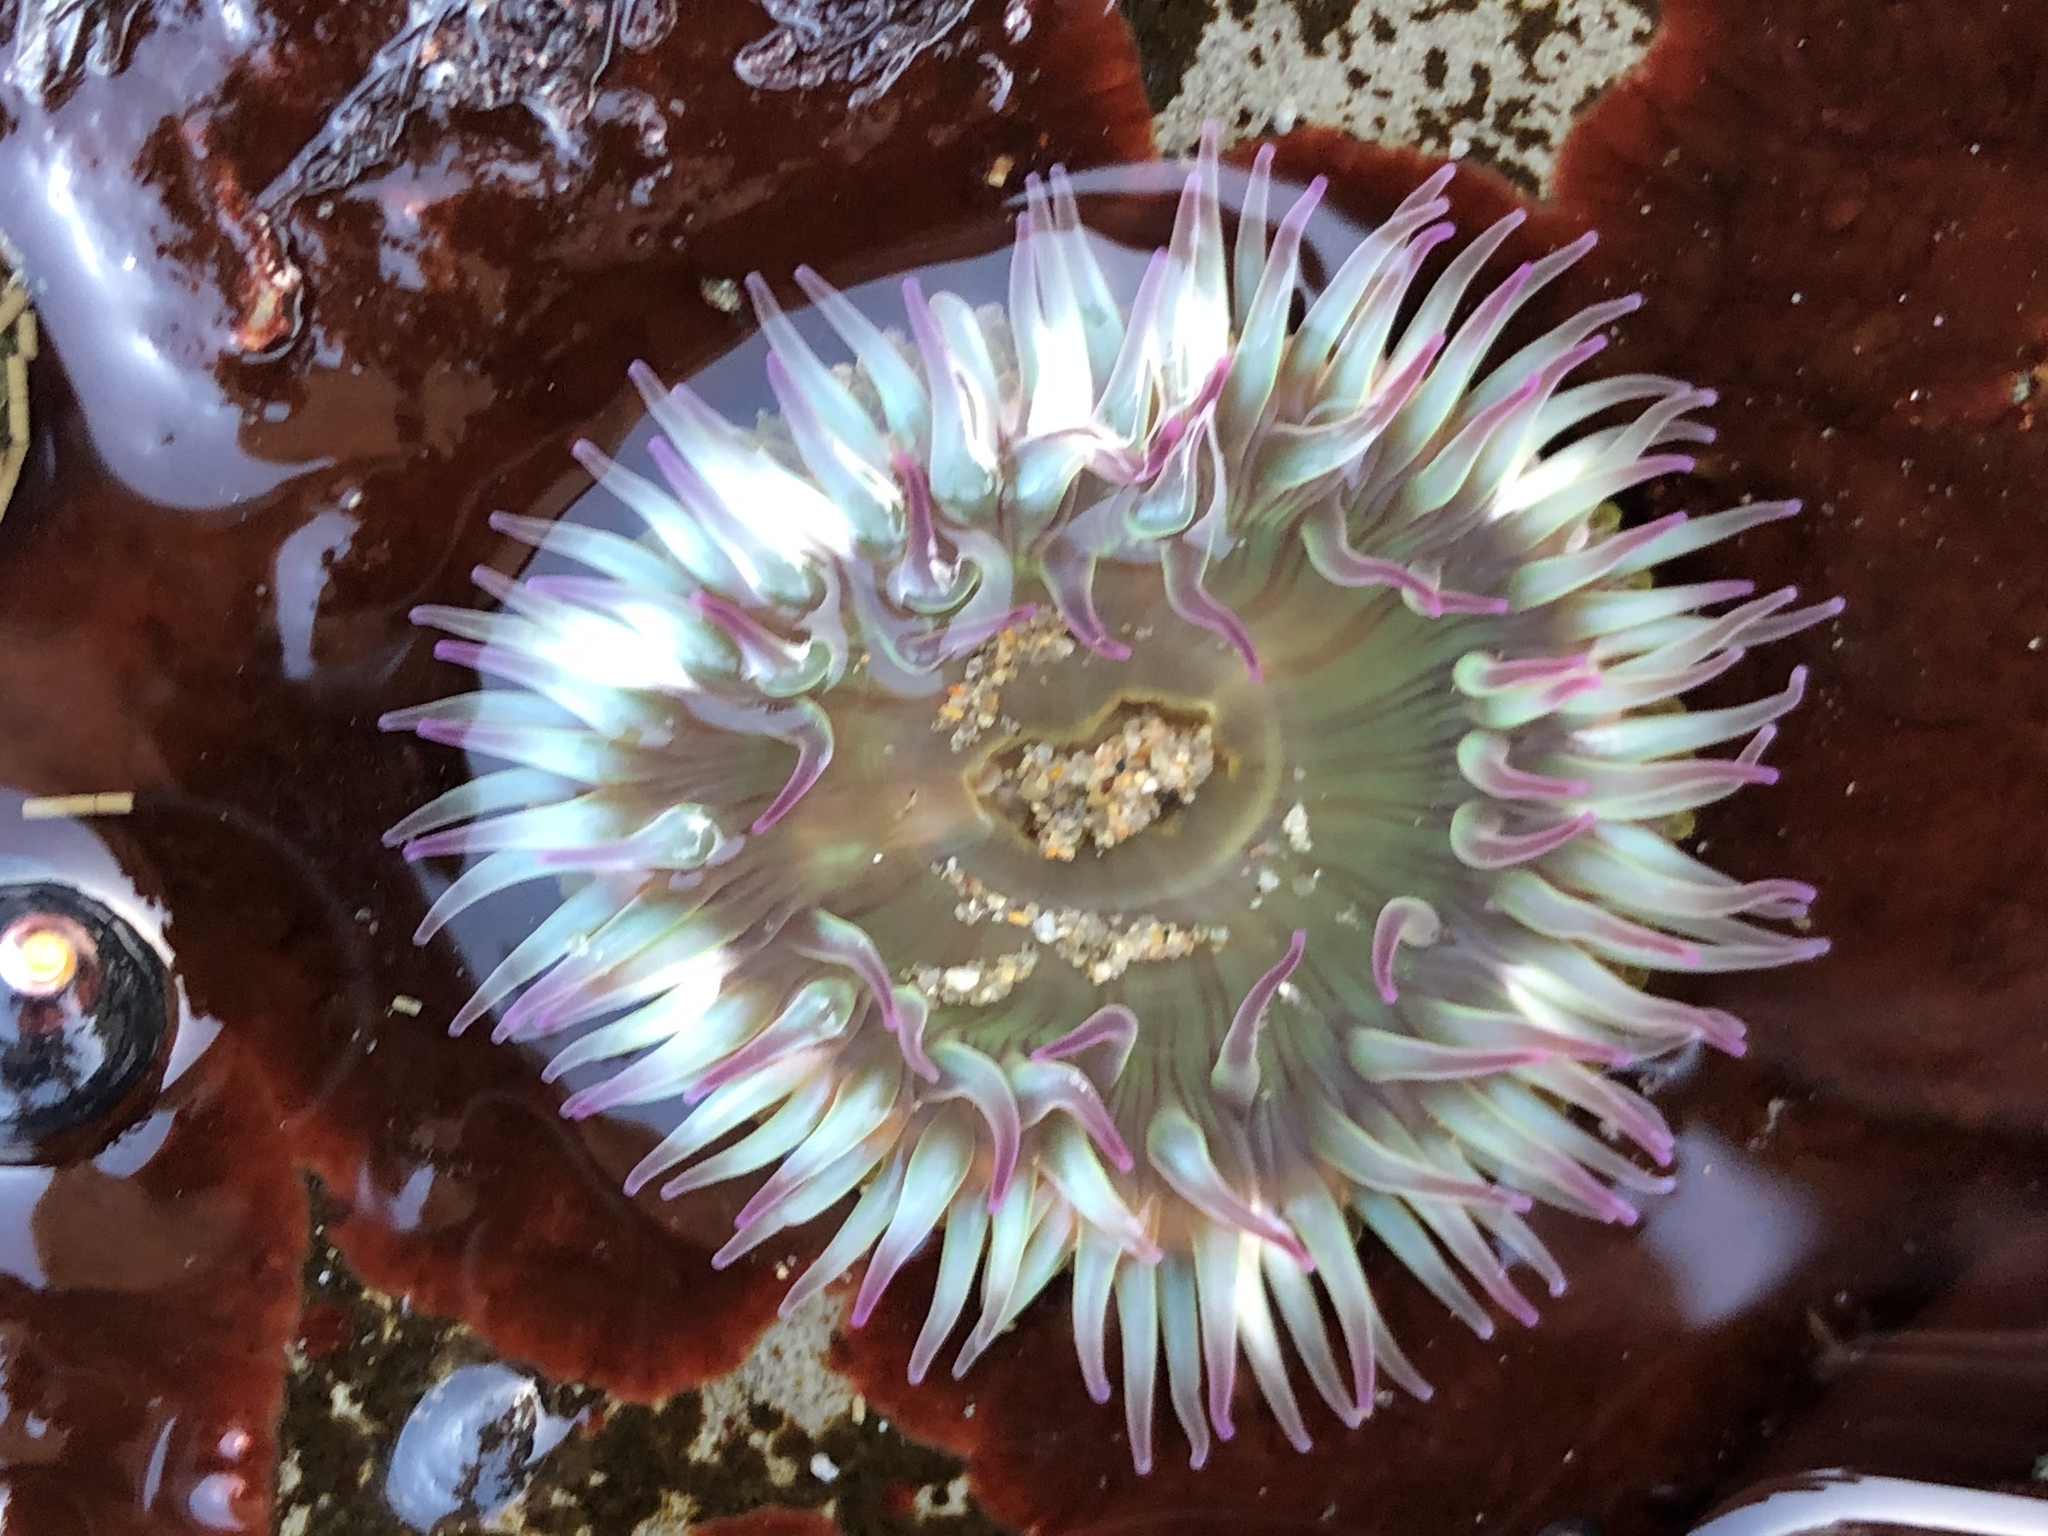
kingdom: Animalia
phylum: Cnidaria
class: Anthozoa
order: Actiniaria
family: Actiniidae
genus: Anthopleura
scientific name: Anthopleura elegantissima
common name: Clonal anemone
